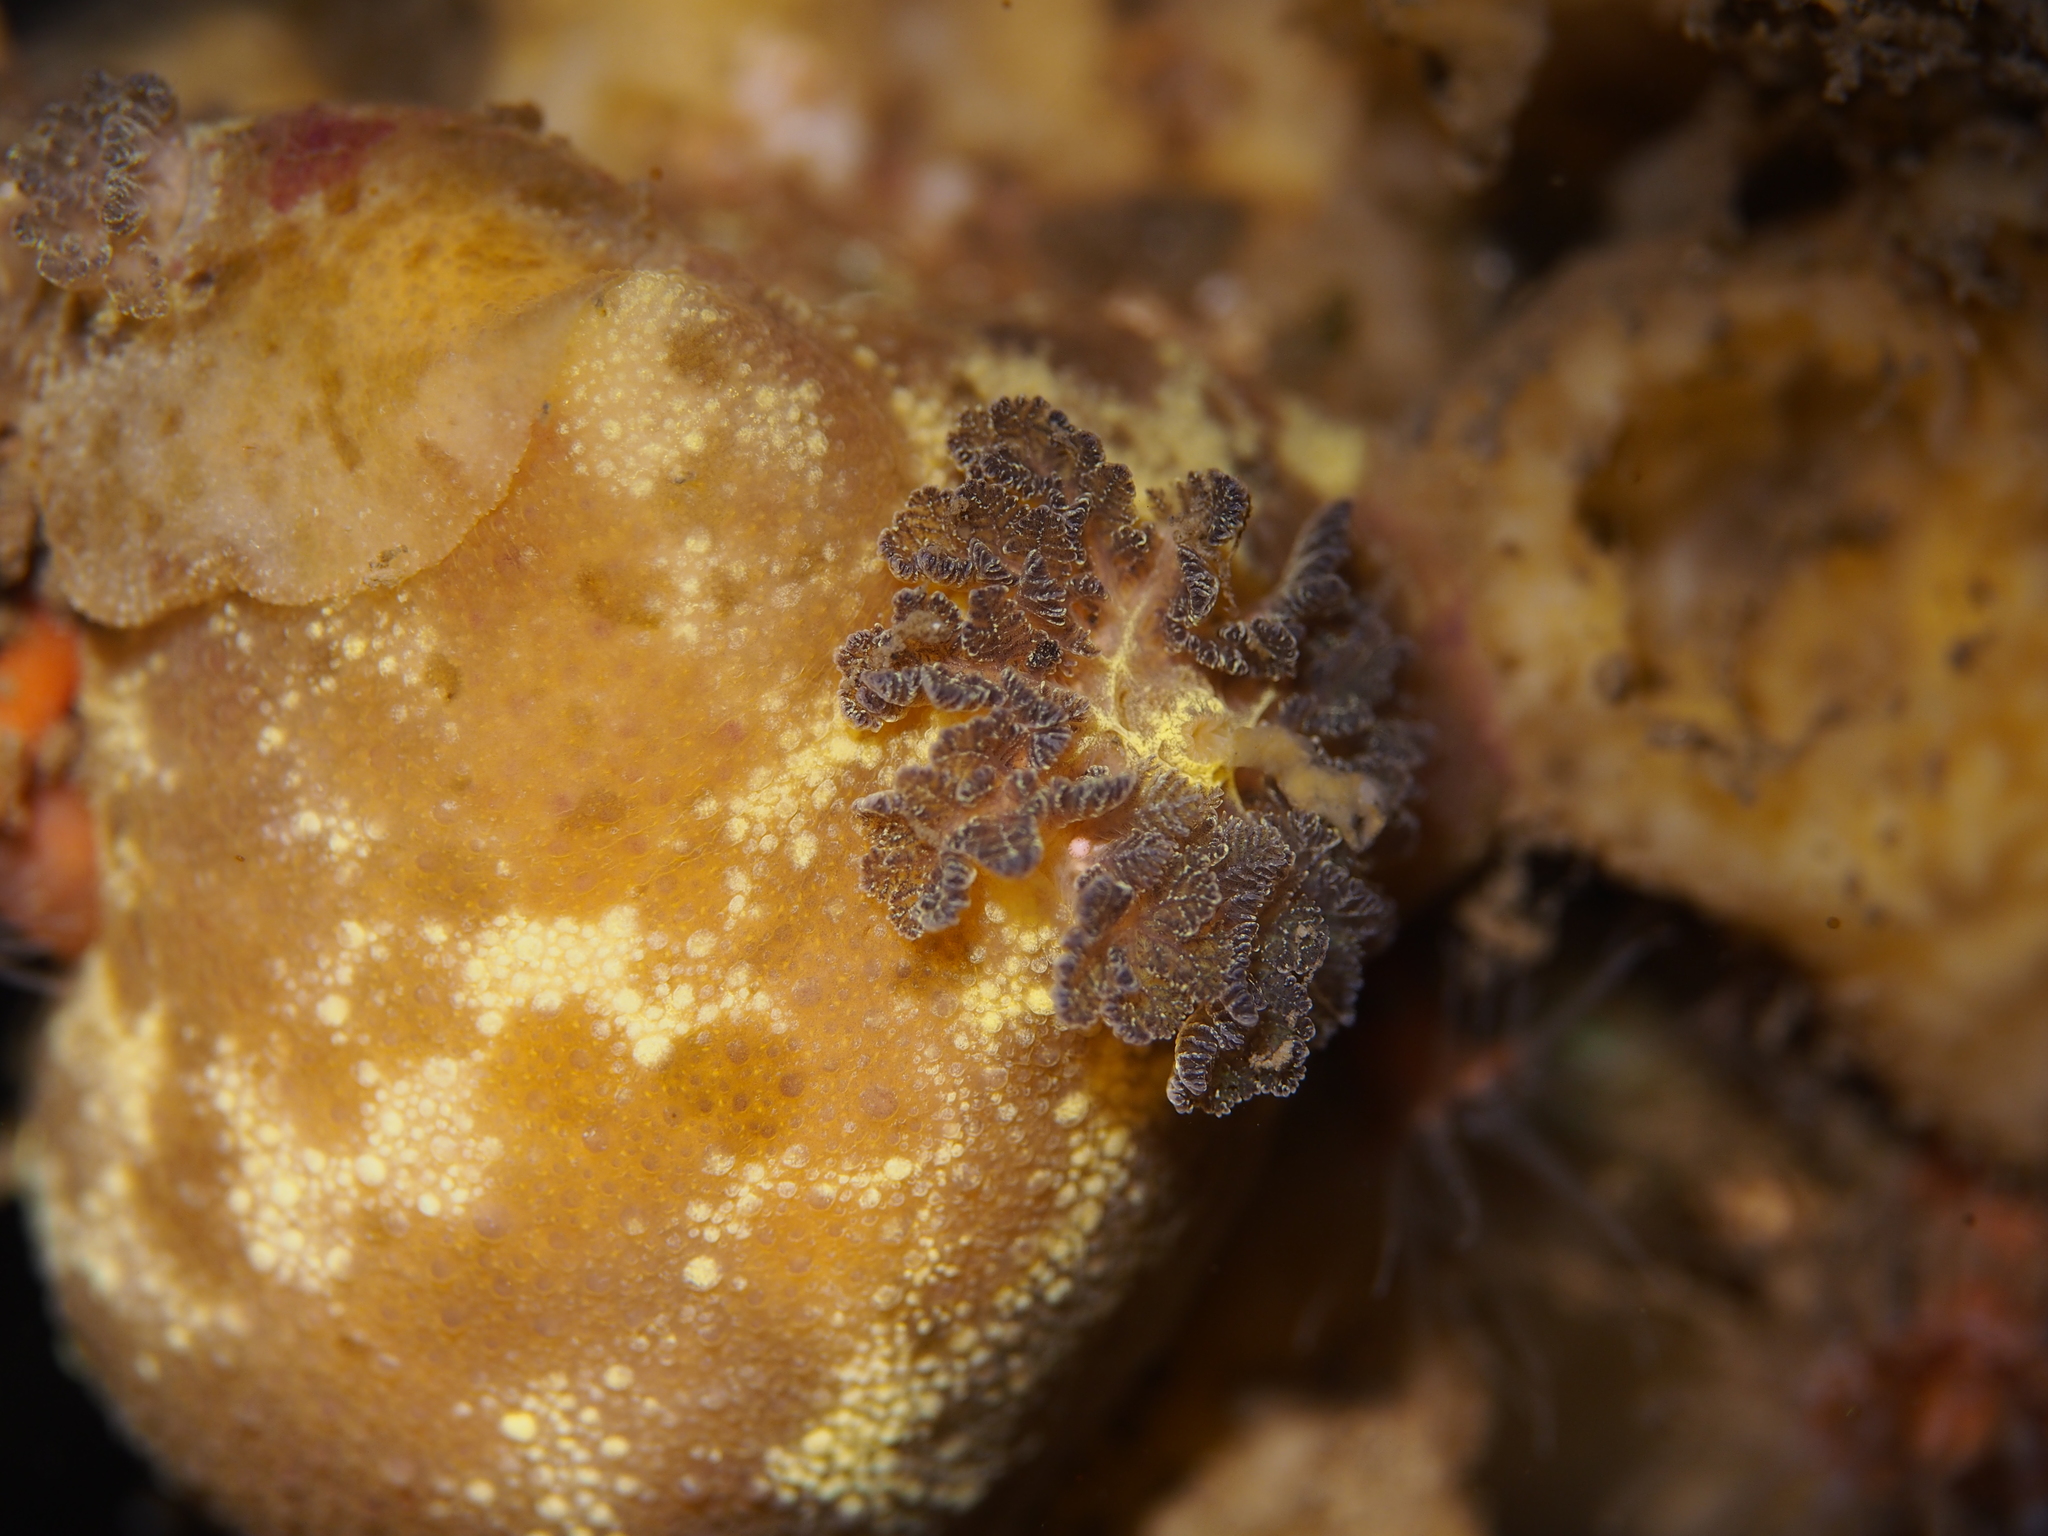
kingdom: Animalia
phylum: Mollusca
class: Gastropoda
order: Nudibranchia
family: Dorididae
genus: Doris
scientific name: Doris pseudoargus
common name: Sea lemon
